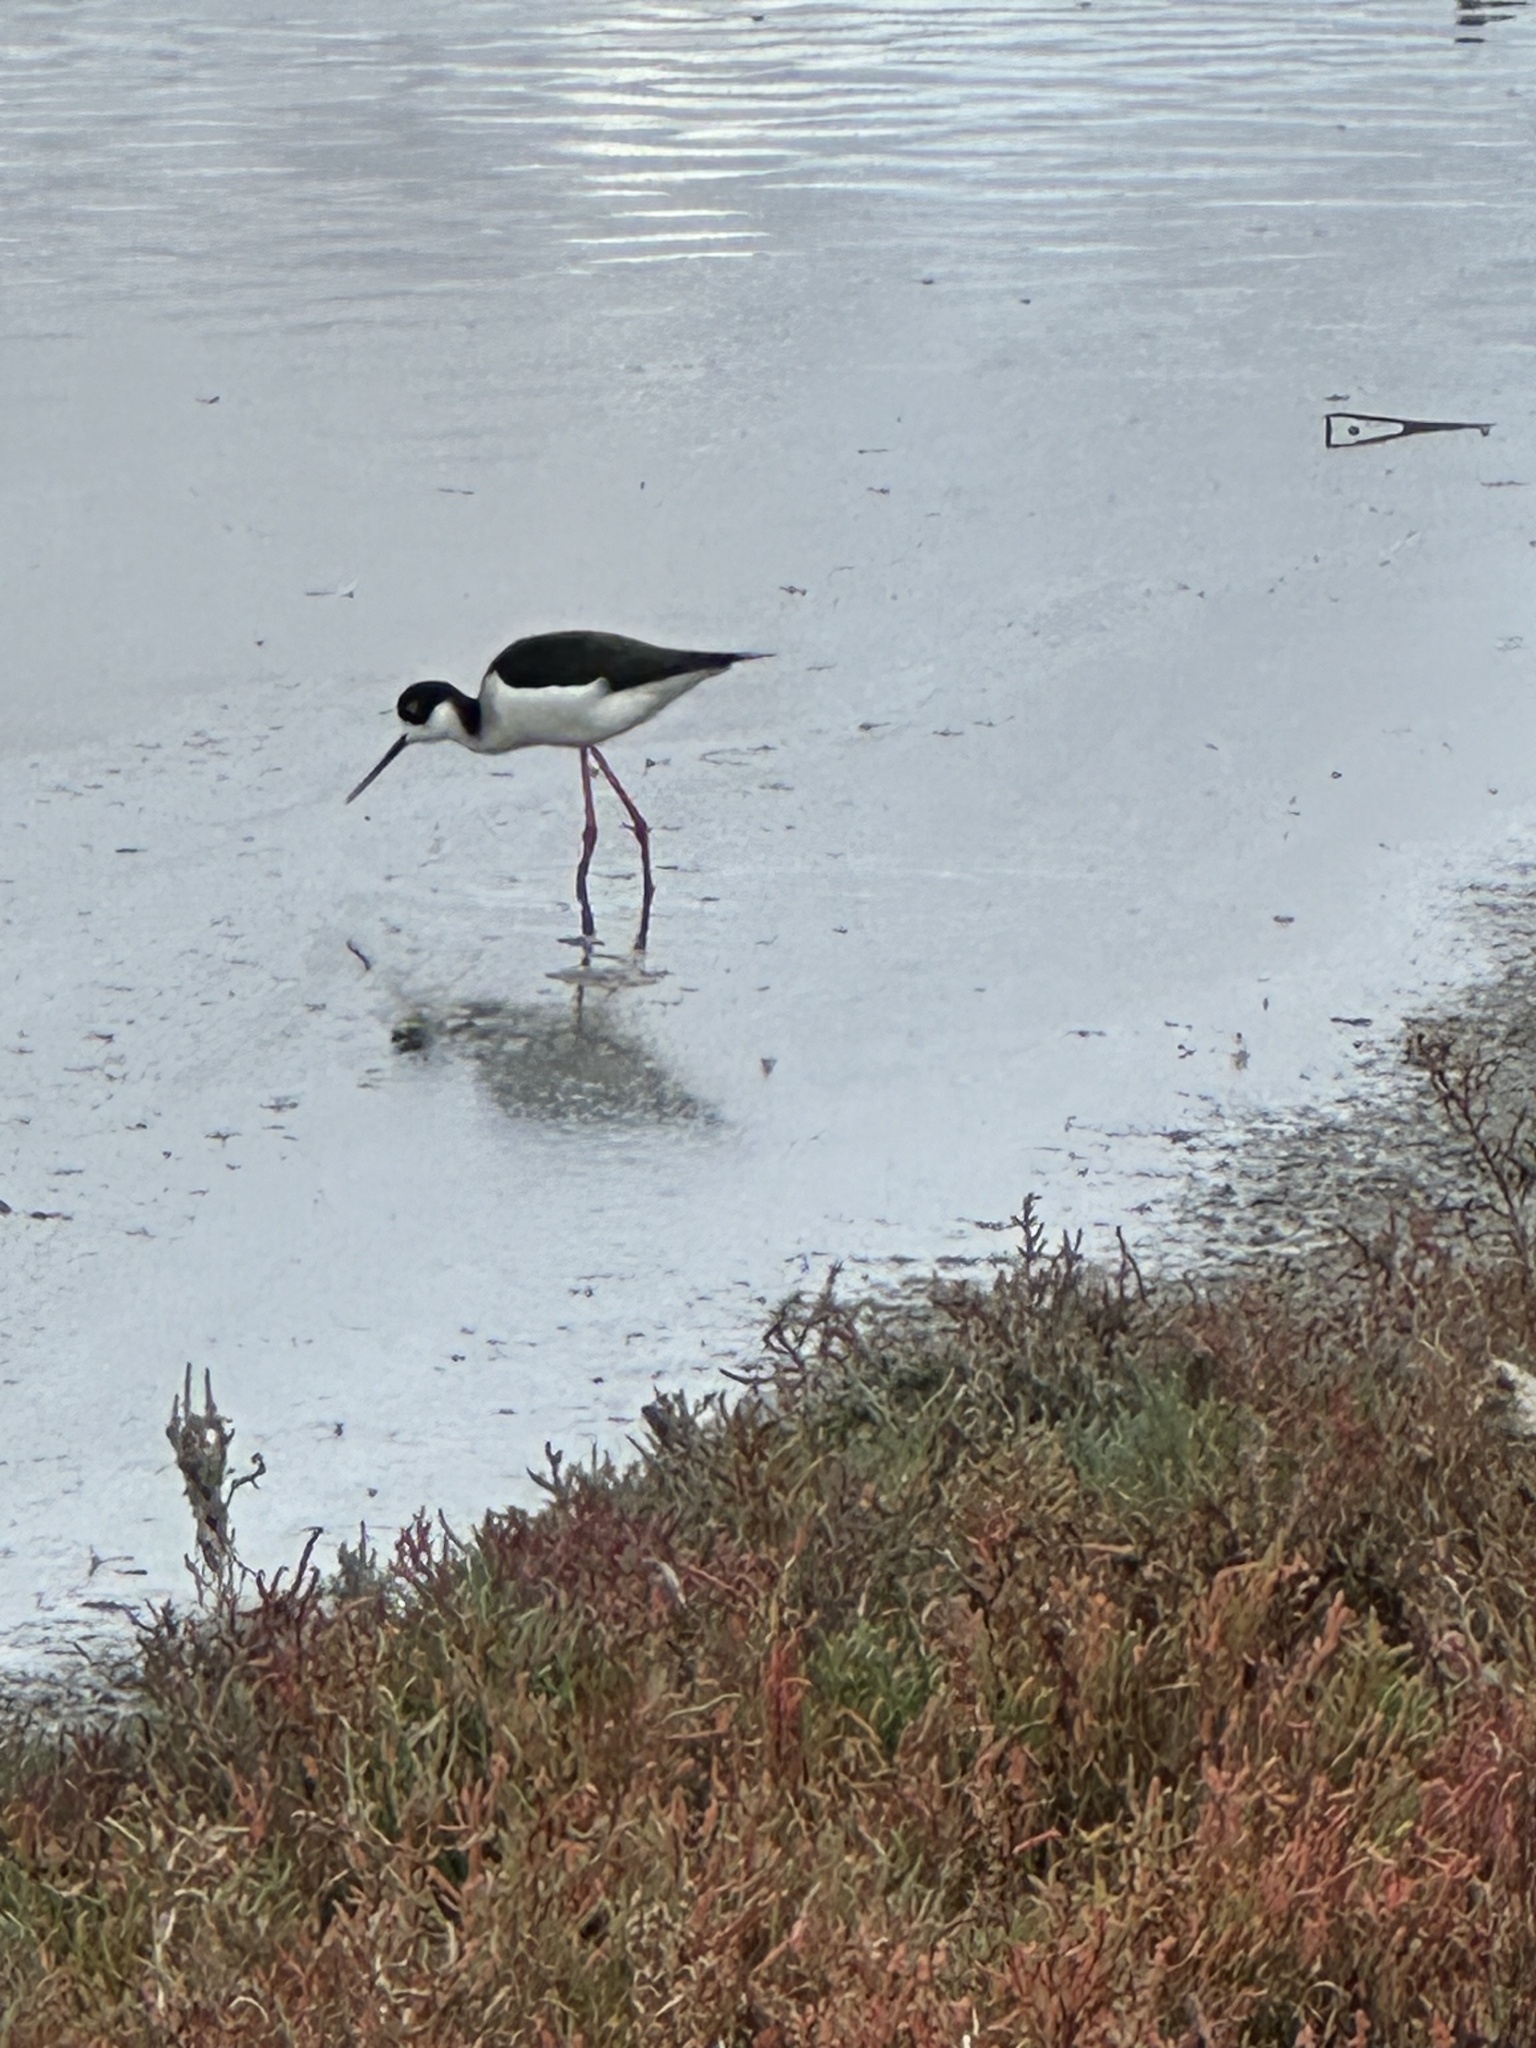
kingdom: Animalia
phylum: Chordata
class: Aves
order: Charadriiformes
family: Recurvirostridae
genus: Himantopus
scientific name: Himantopus mexicanus
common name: Black-necked stilt
